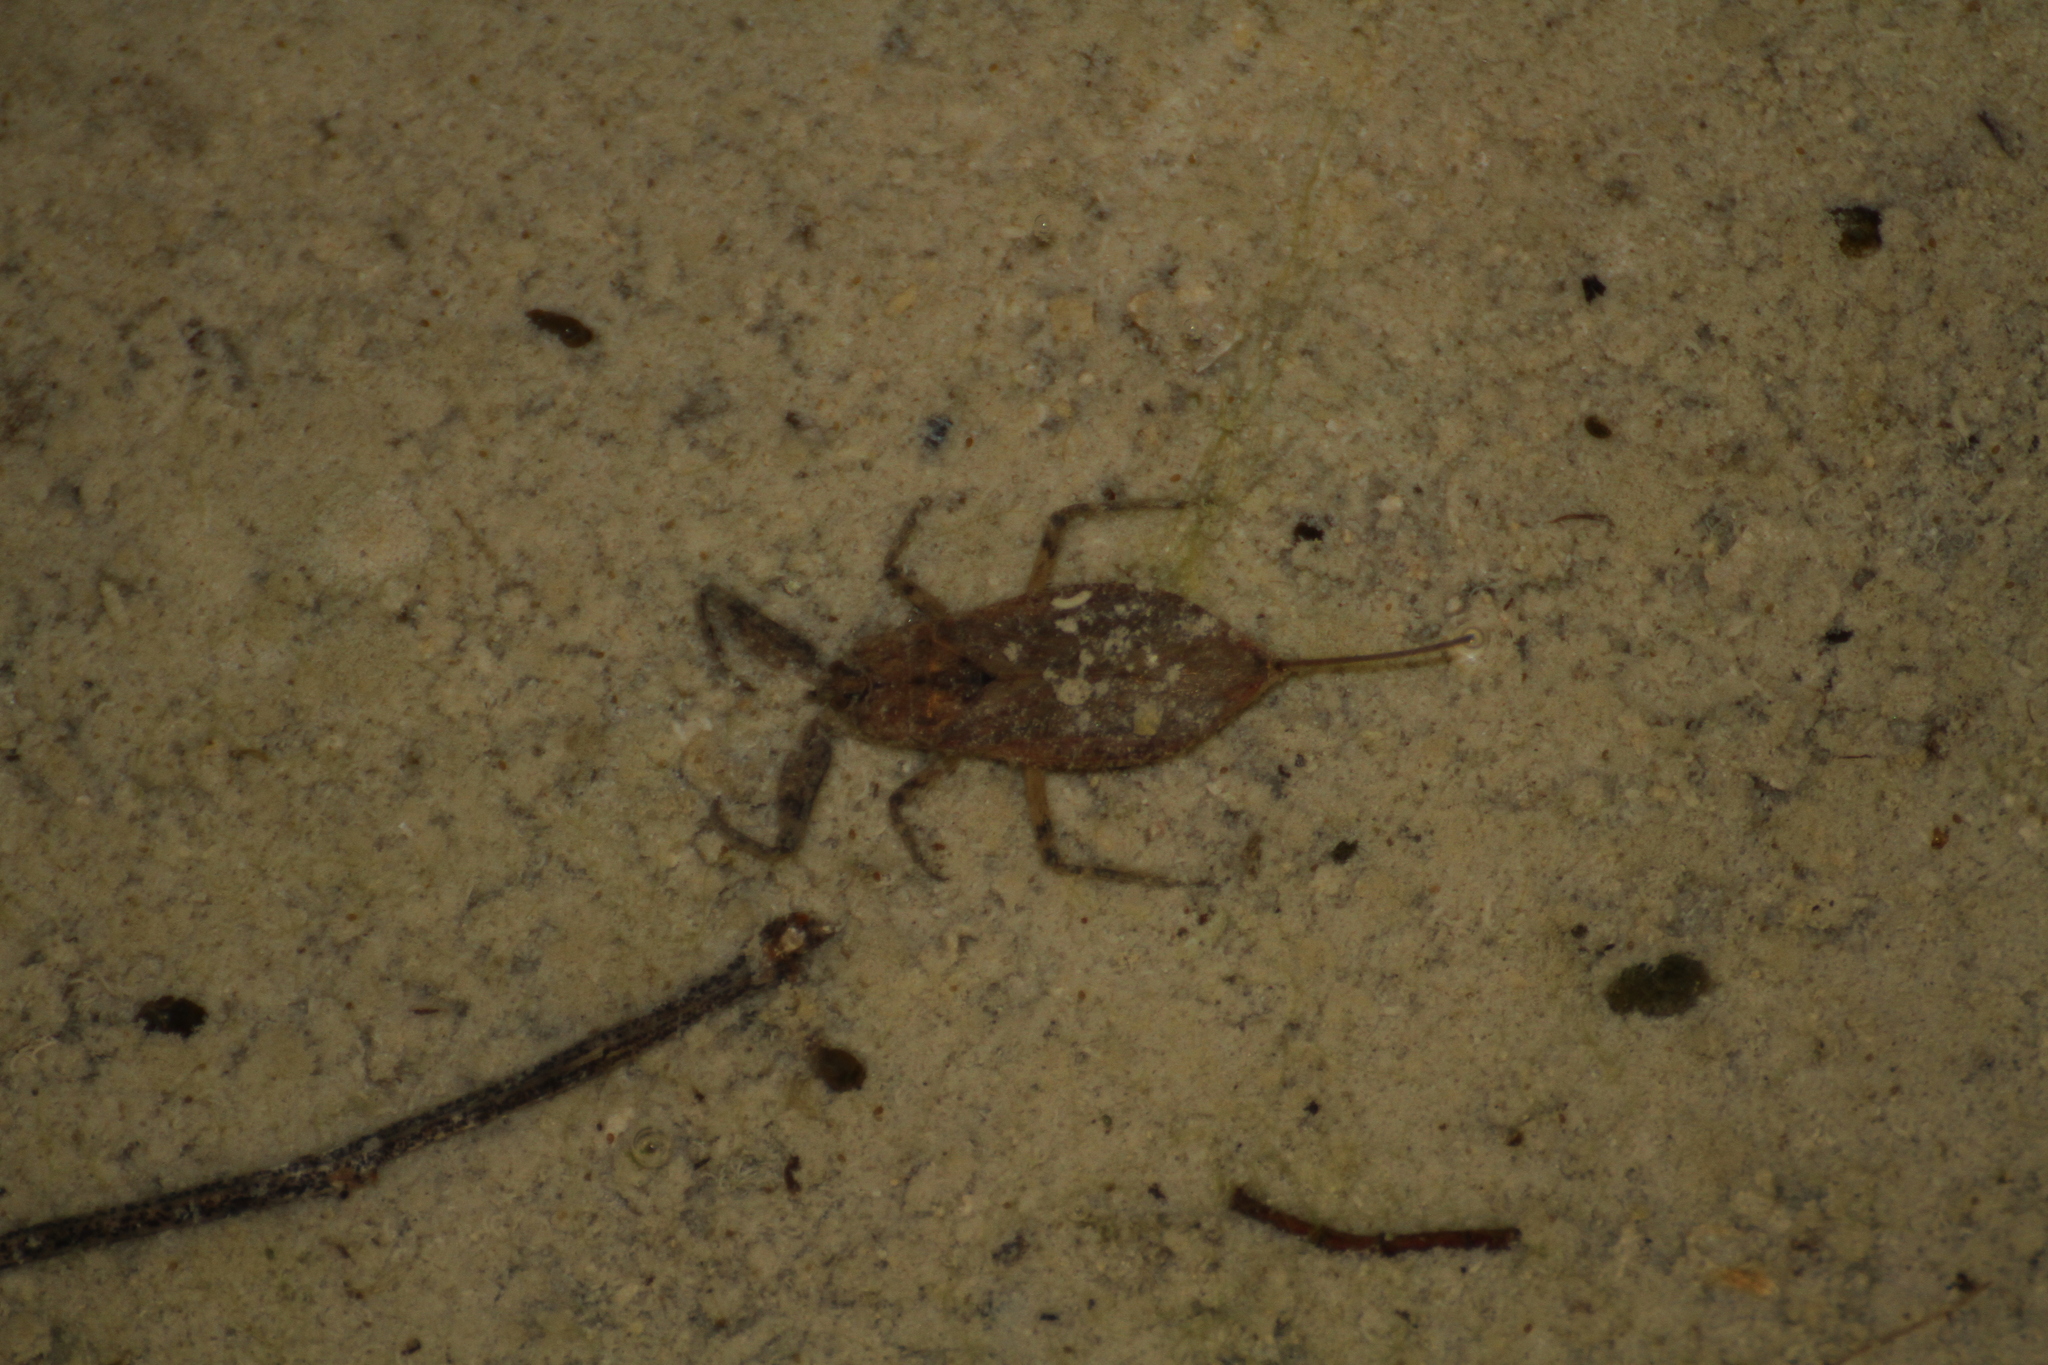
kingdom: Animalia
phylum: Arthropoda
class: Insecta
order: Hemiptera
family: Nepidae
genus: Nepa
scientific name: Nepa cinerea
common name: Water scorpion
